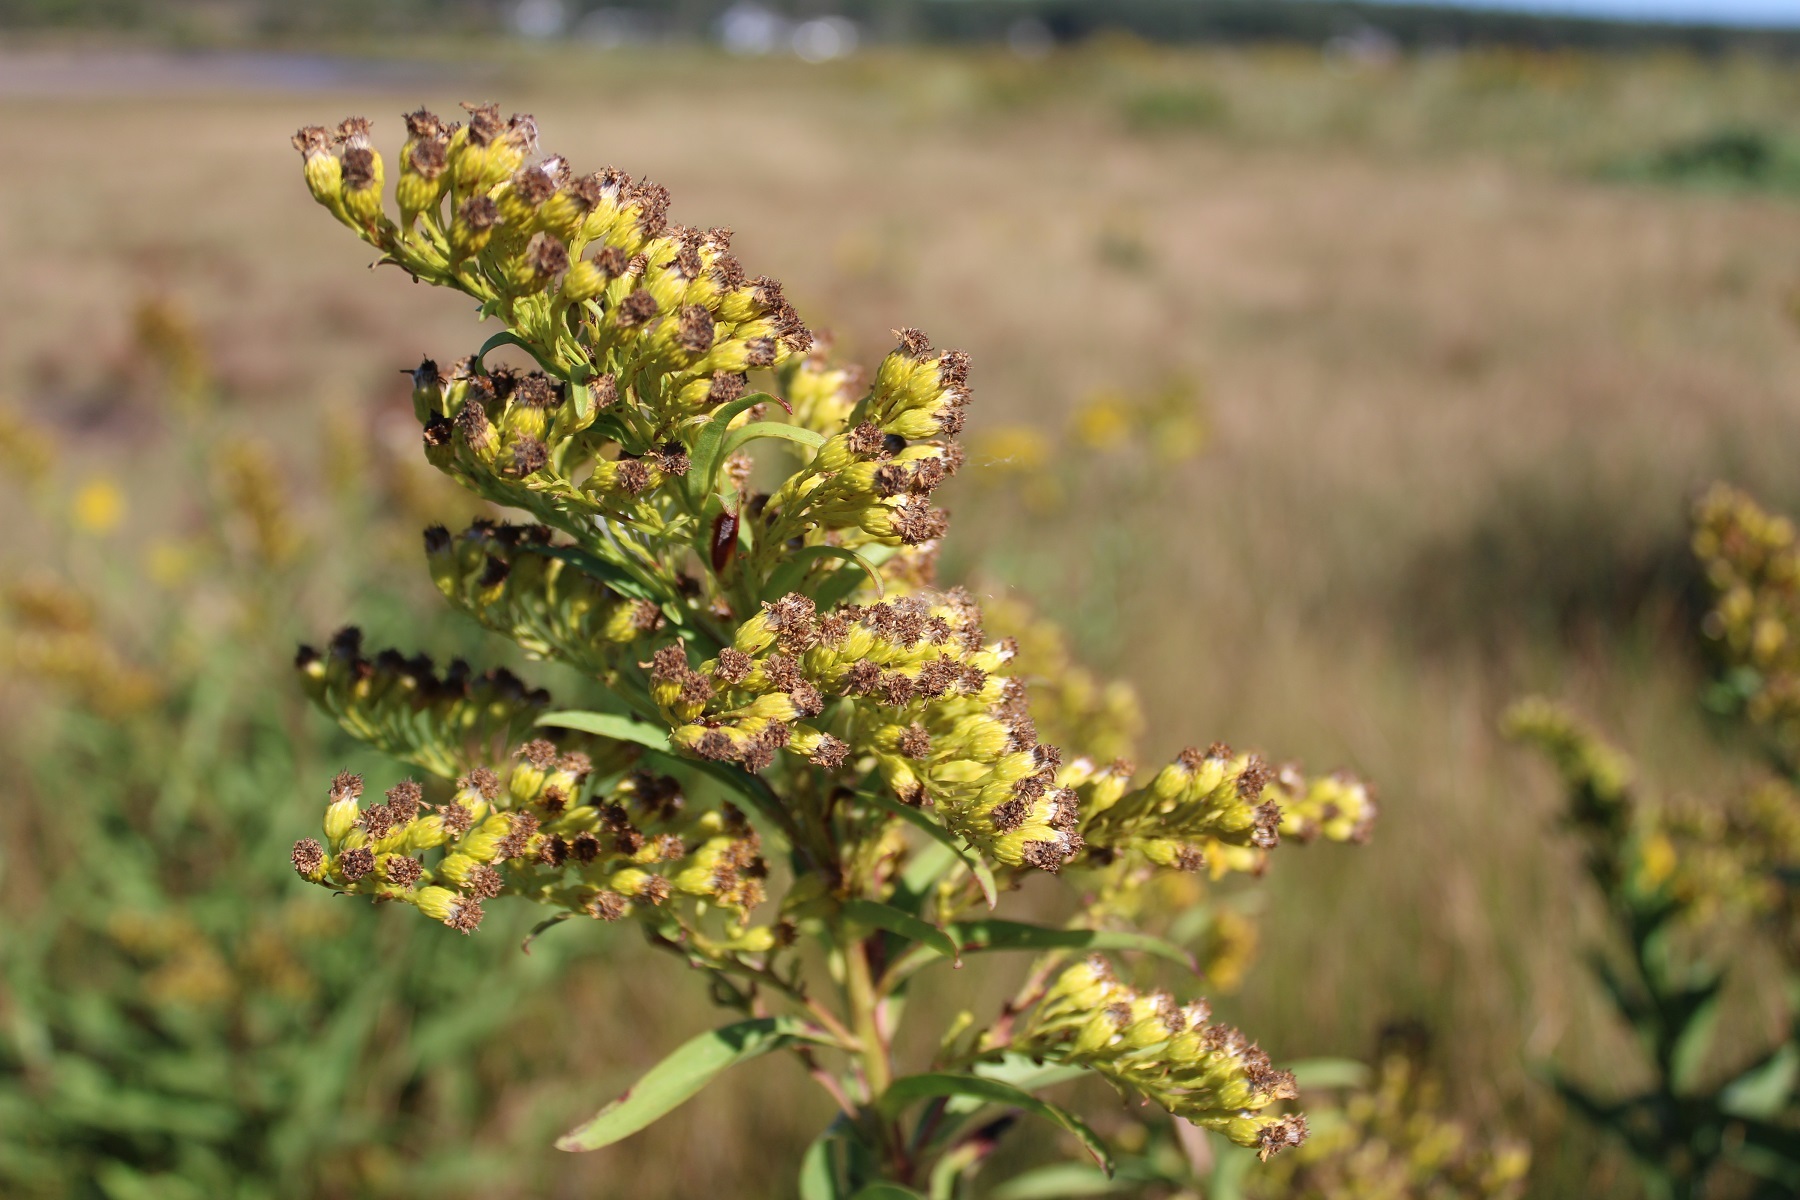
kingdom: Plantae
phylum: Tracheophyta
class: Magnoliopsida
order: Asterales
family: Asteraceae
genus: Solidago
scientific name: Solidago sempervirens
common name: Salt-marsh goldenrod
